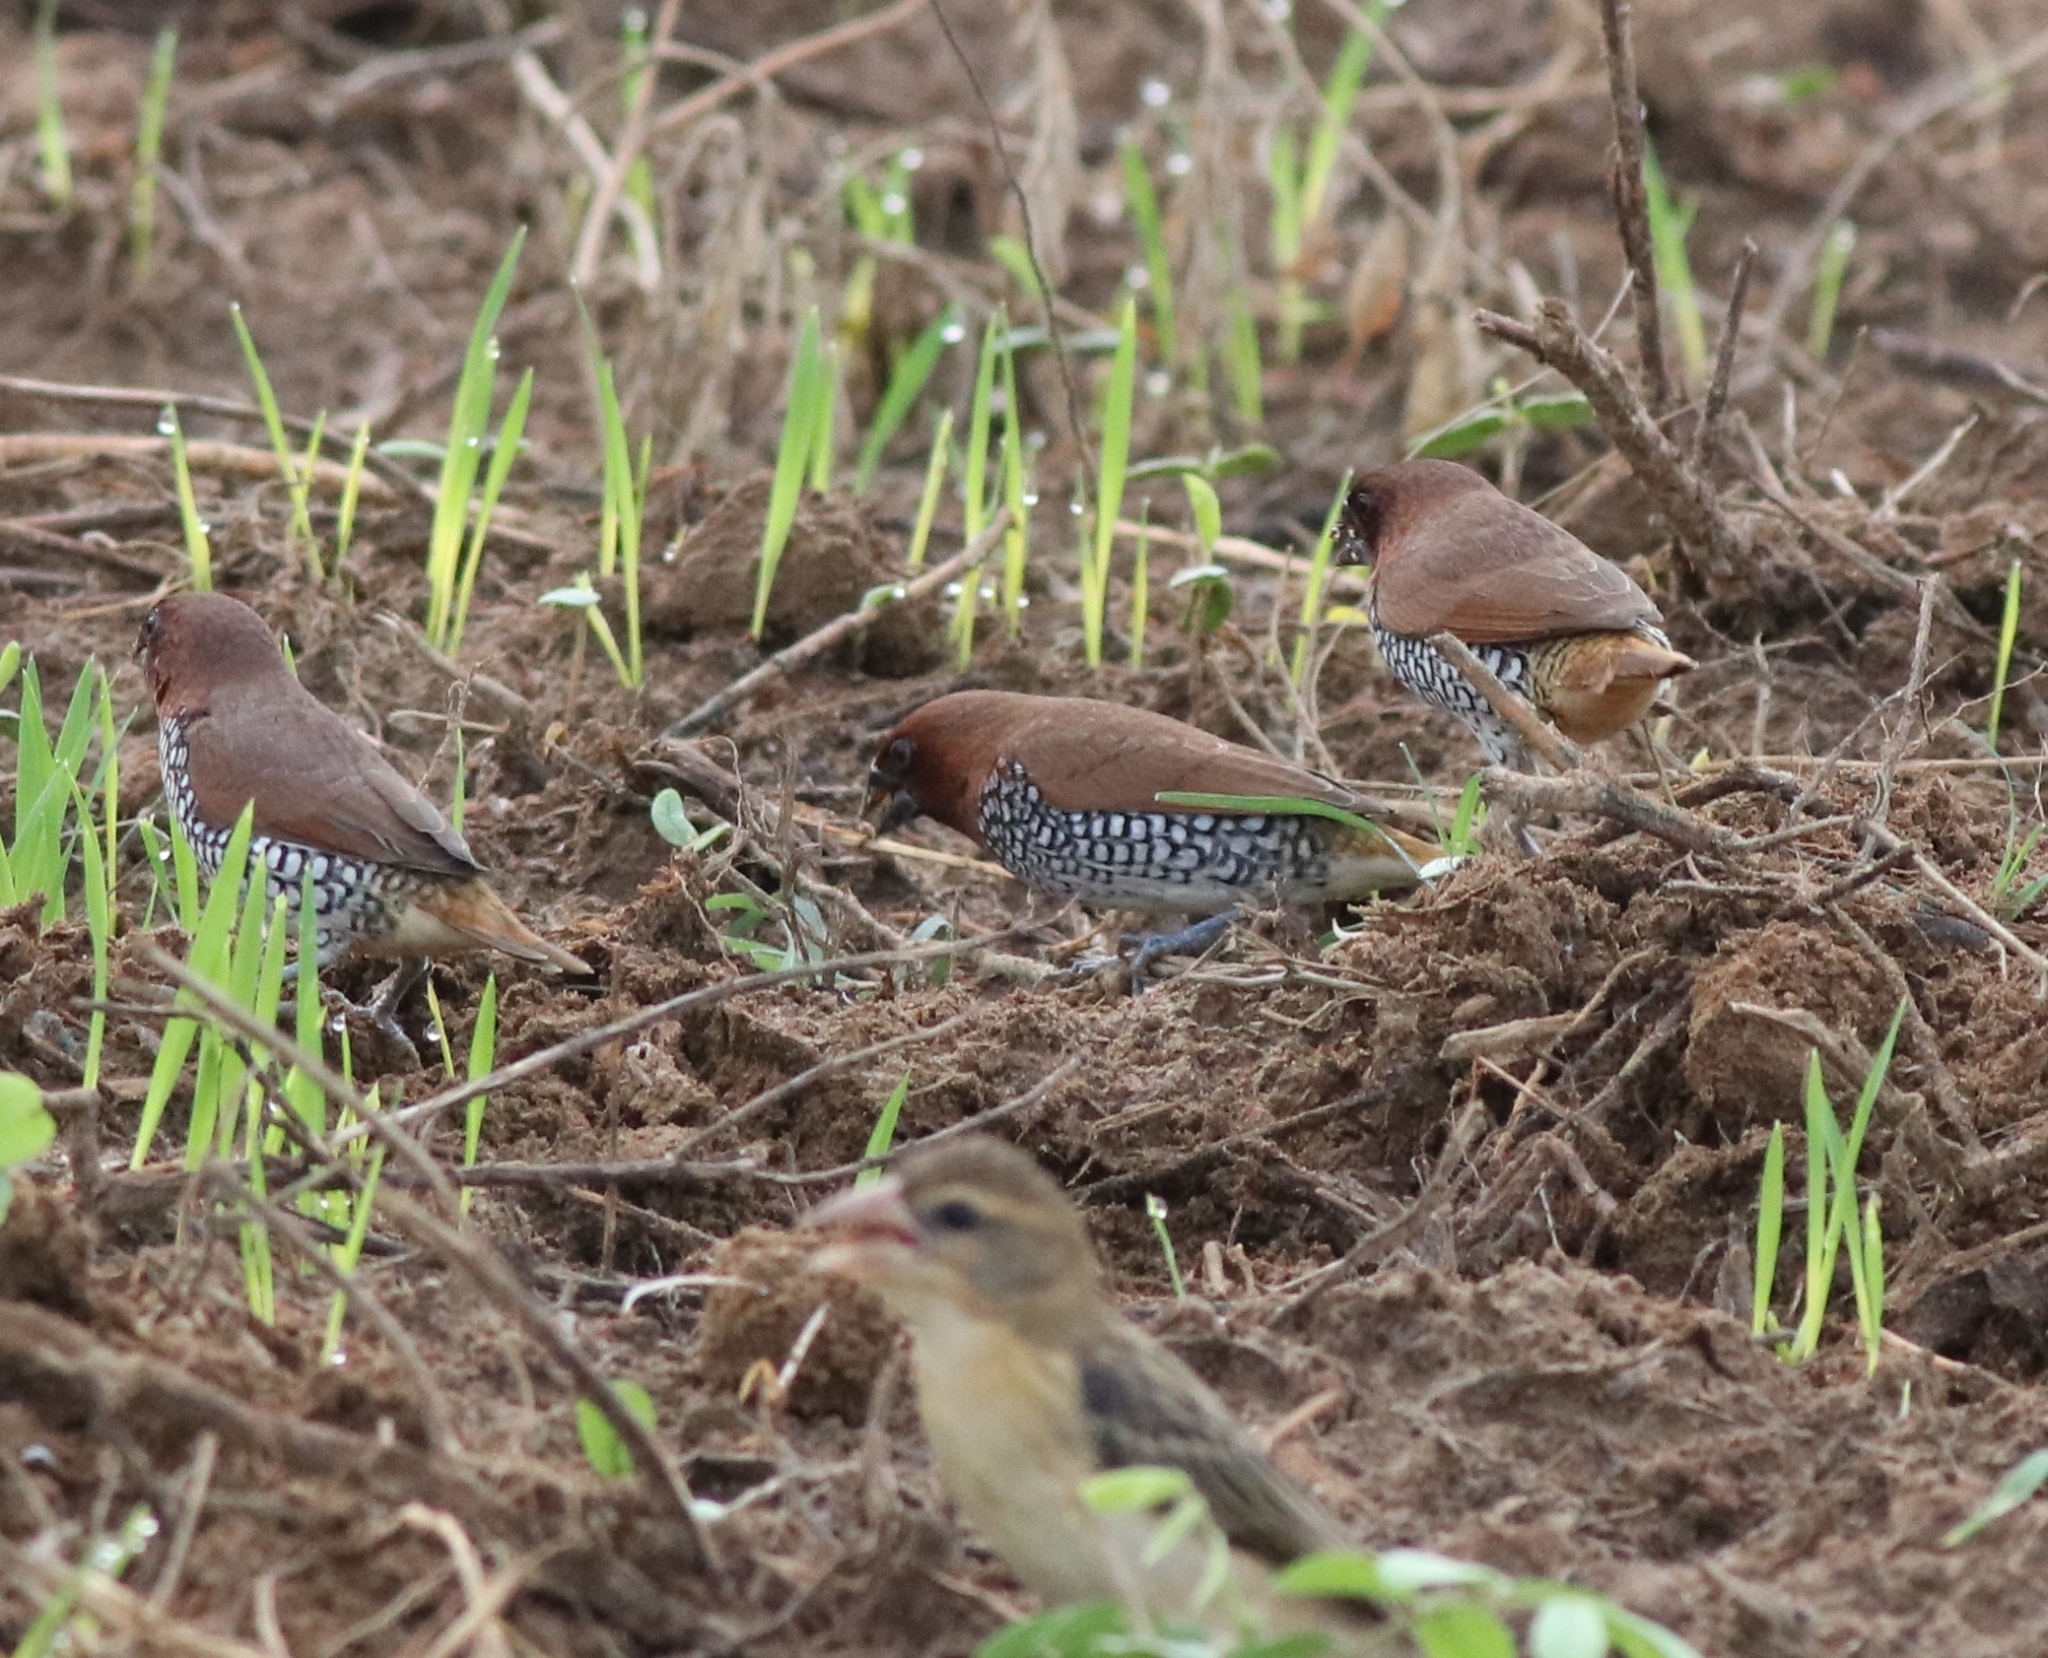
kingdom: Animalia
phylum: Chordata
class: Aves
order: Passeriformes
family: Estrildidae
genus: Lonchura
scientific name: Lonchura punctulata
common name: Scaly-breasted munia
